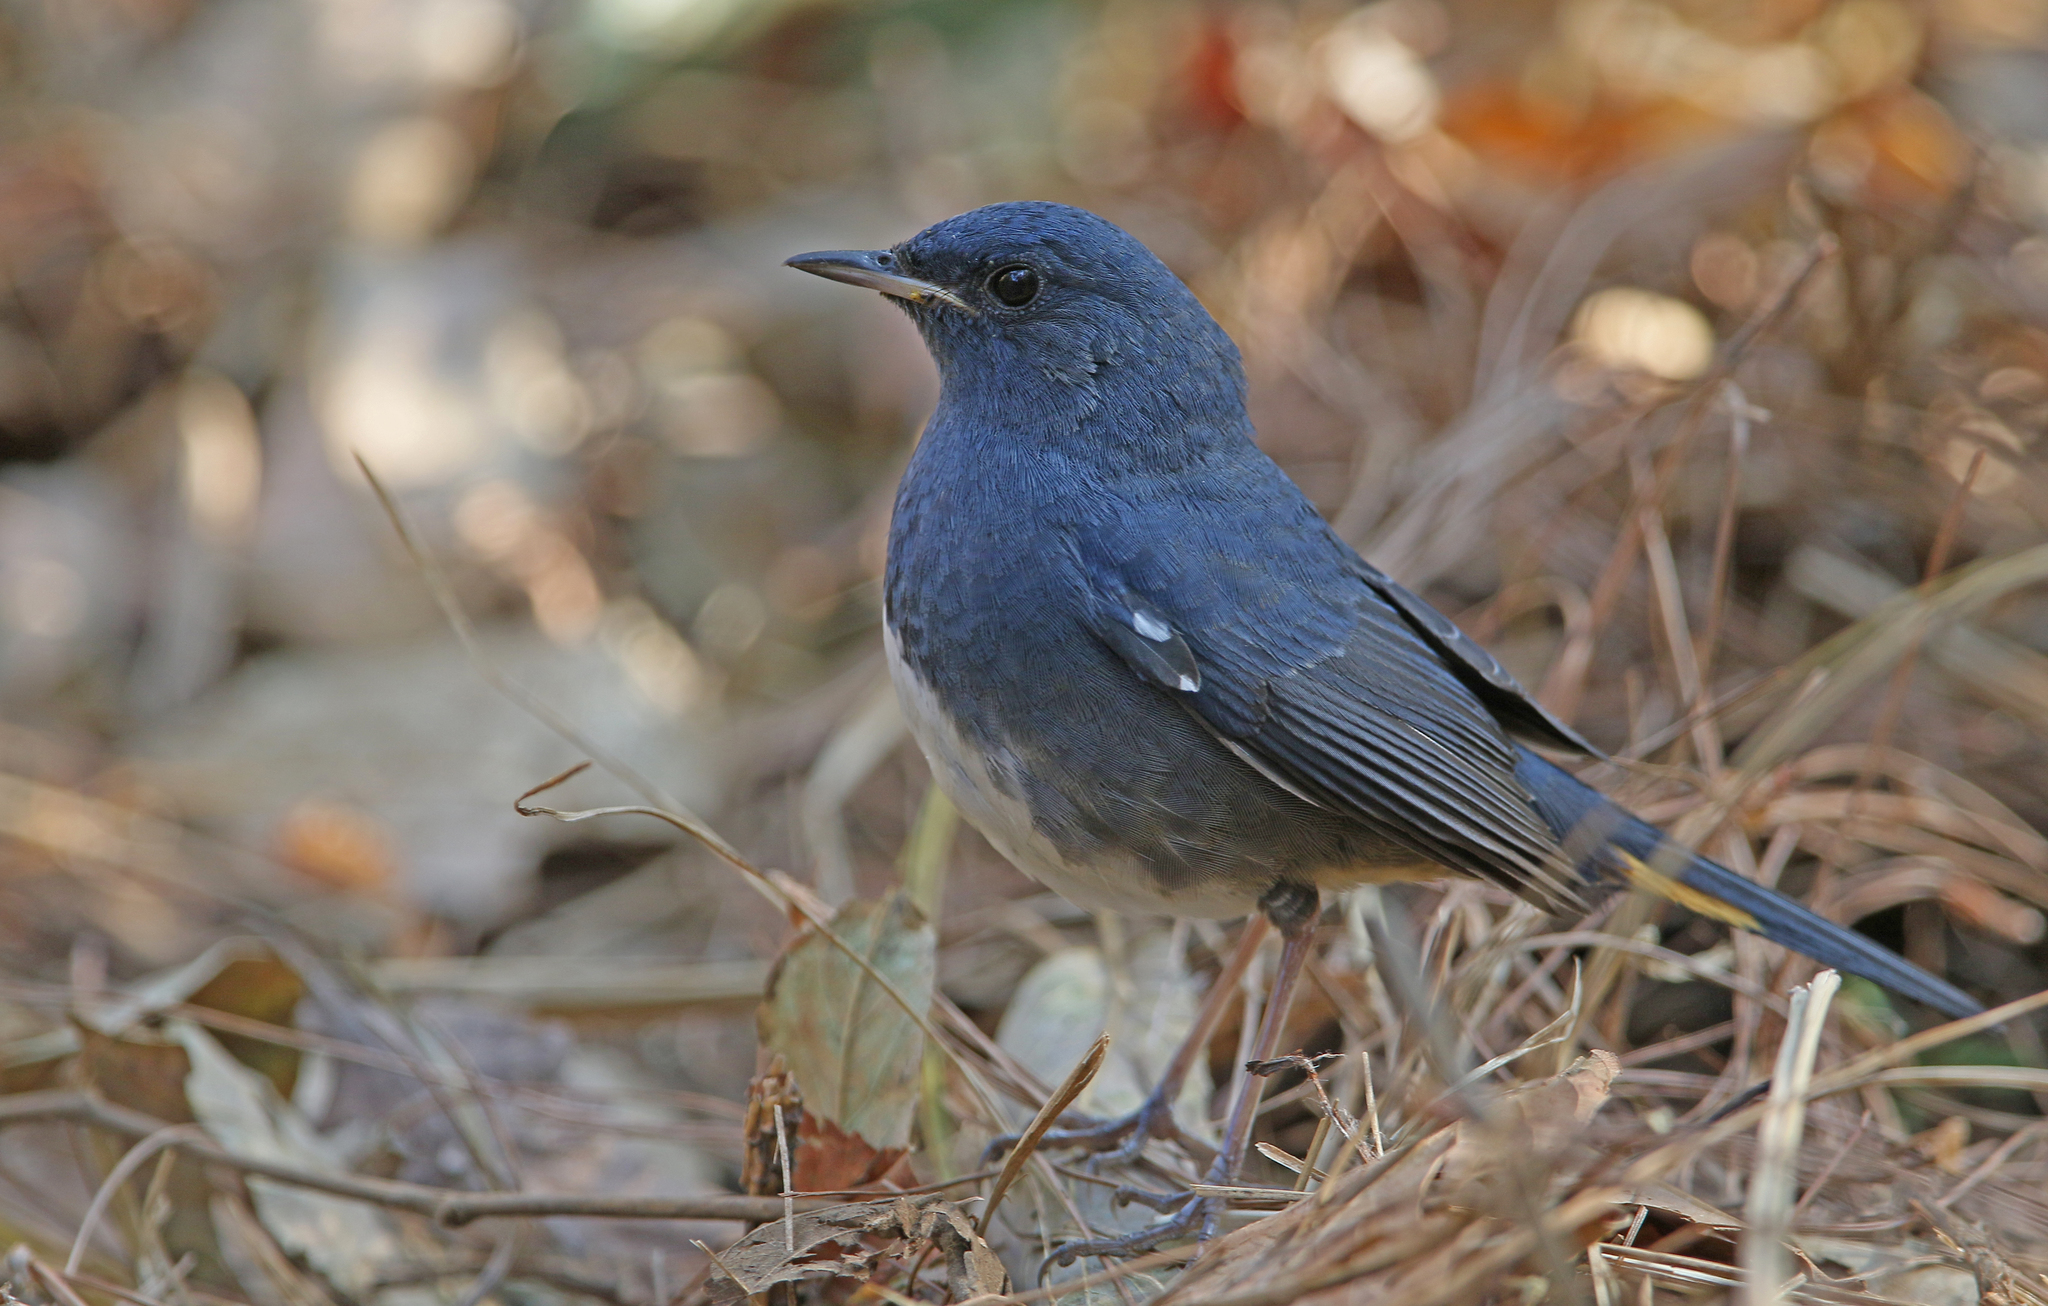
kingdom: Animalia
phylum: Chordata
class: Aves
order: Passeriformes
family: Muscicapidae
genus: Hodgsonius
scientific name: Hodgsonius phoenicuroides
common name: White-bellied redstart
